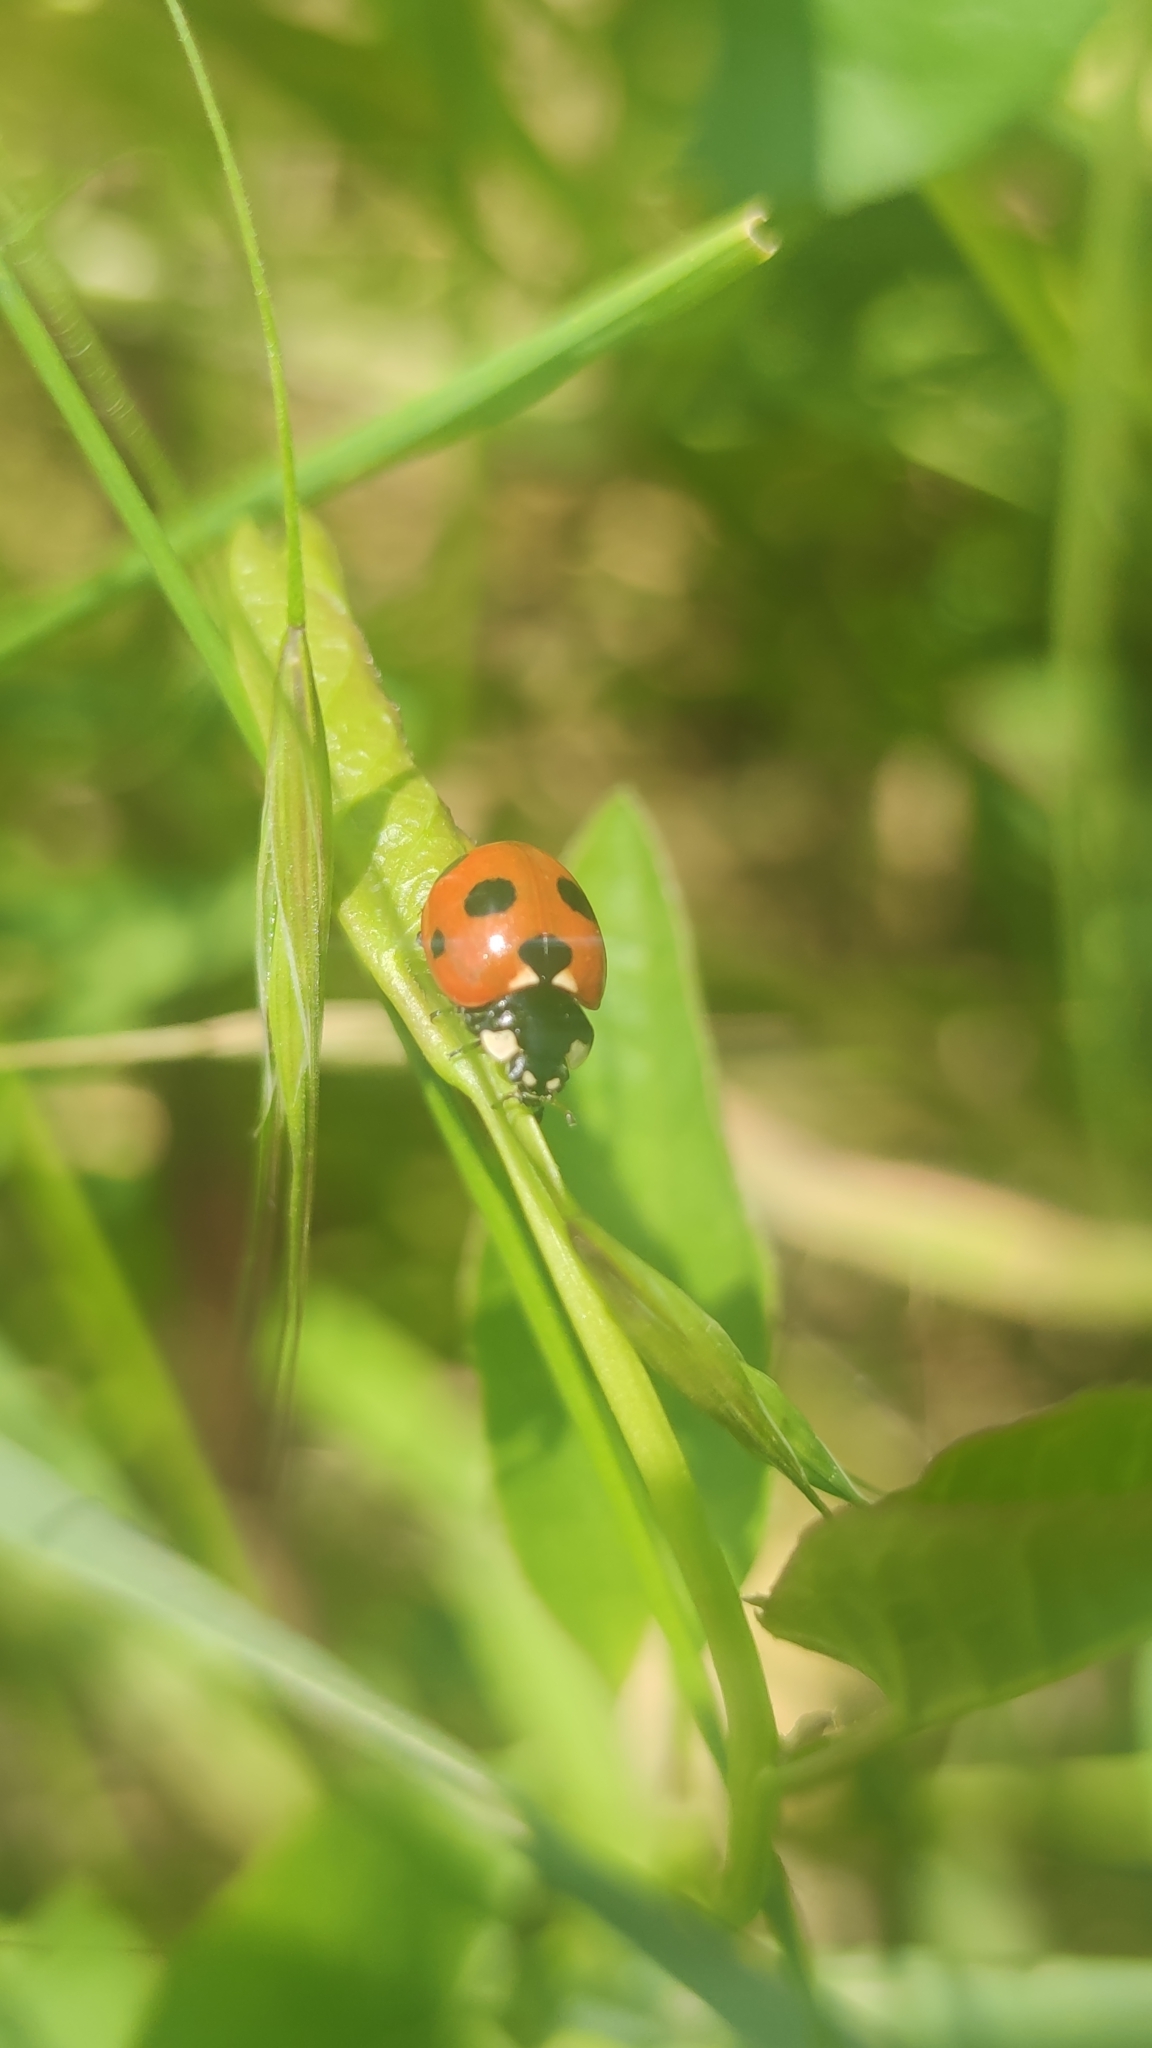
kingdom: Animalia
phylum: Arthropoda
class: Insecta
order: Coleoptera
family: Coccinellidae
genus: Coccinella
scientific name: Coccinella magnifica
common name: Scarce 7-spot ladybird
